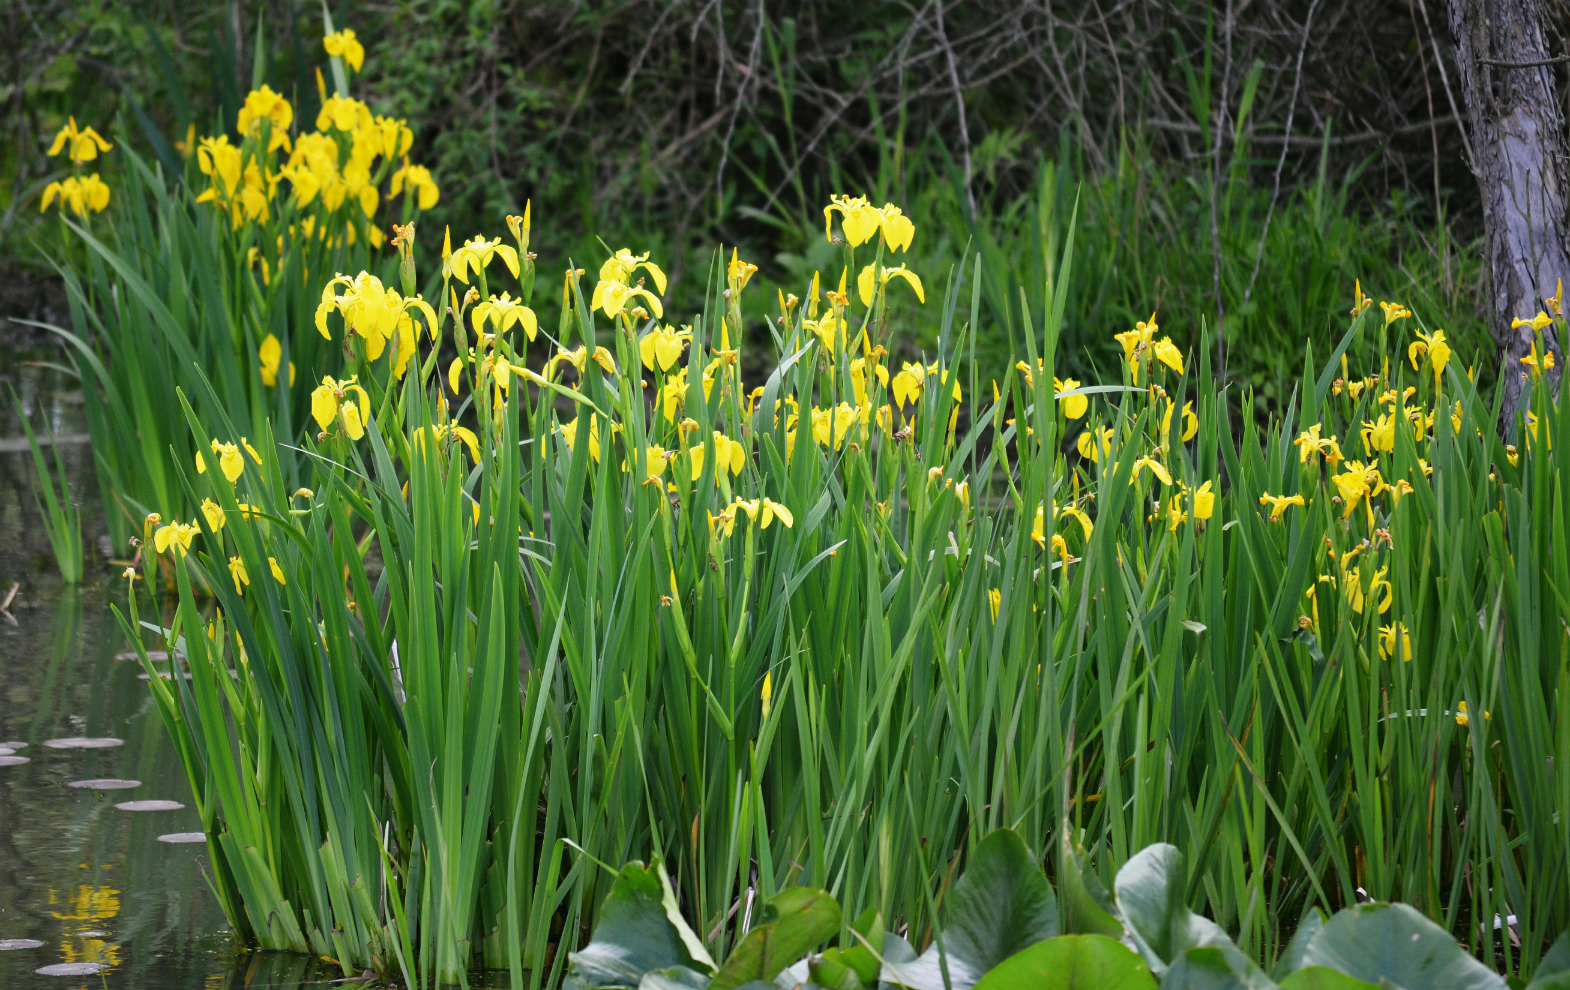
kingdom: Plantae
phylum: Tracheophyta
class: Liliopsida
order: Asparagales
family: Iridaceae
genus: Iris
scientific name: Iris pseudacorus
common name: Yellow flag
